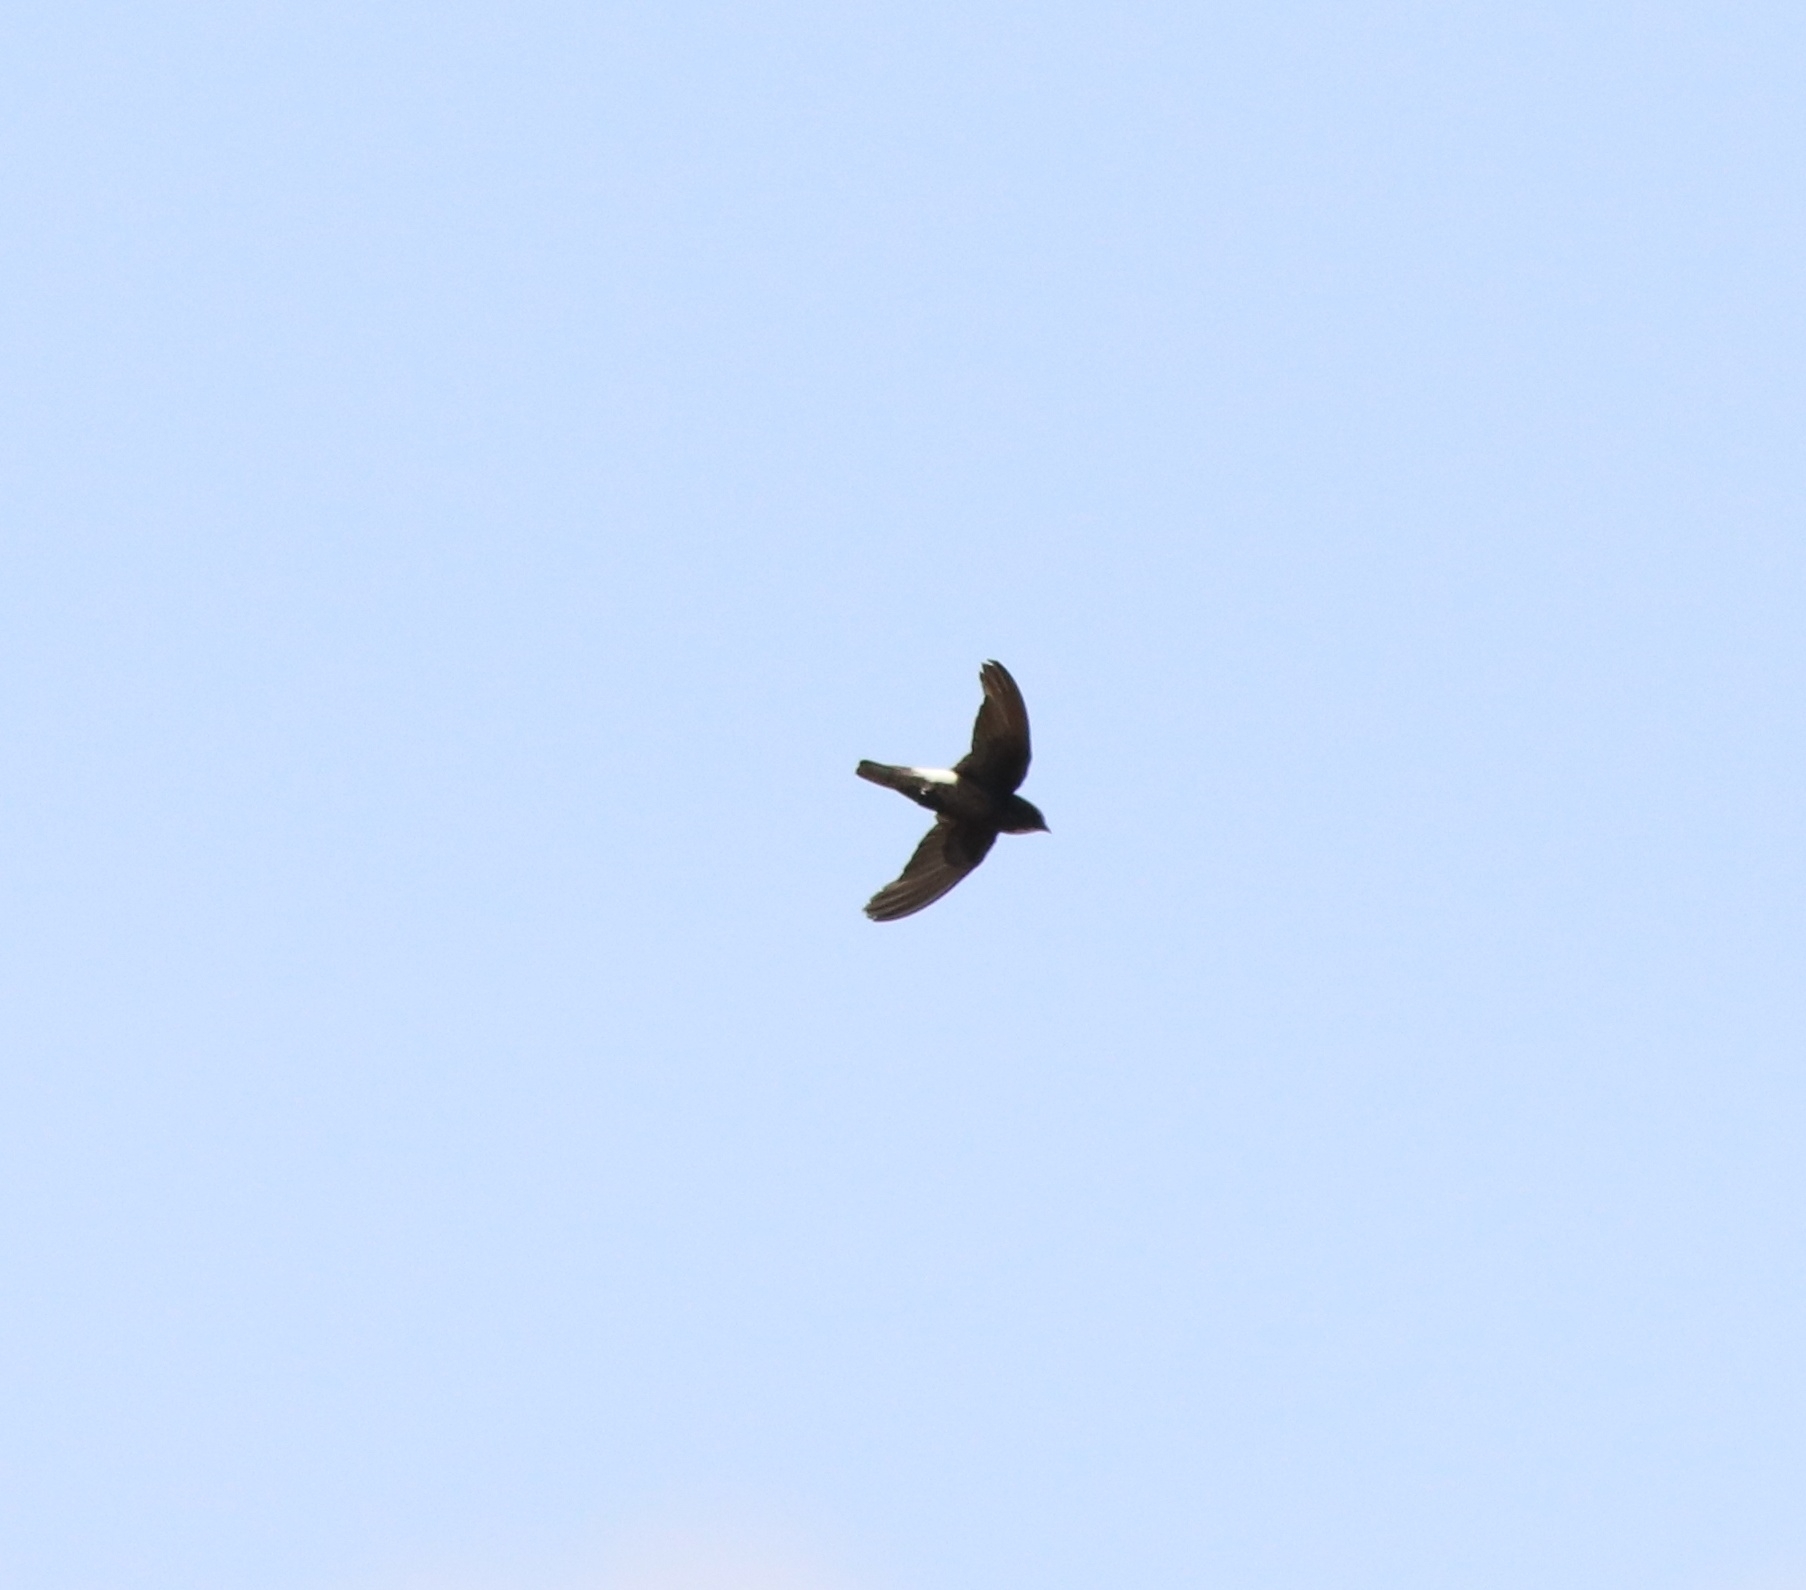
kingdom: Animalia
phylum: Chordata
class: Aves
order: Apodiformes
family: Apodidae
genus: Apus
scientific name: Apus affinis
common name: Little swift
